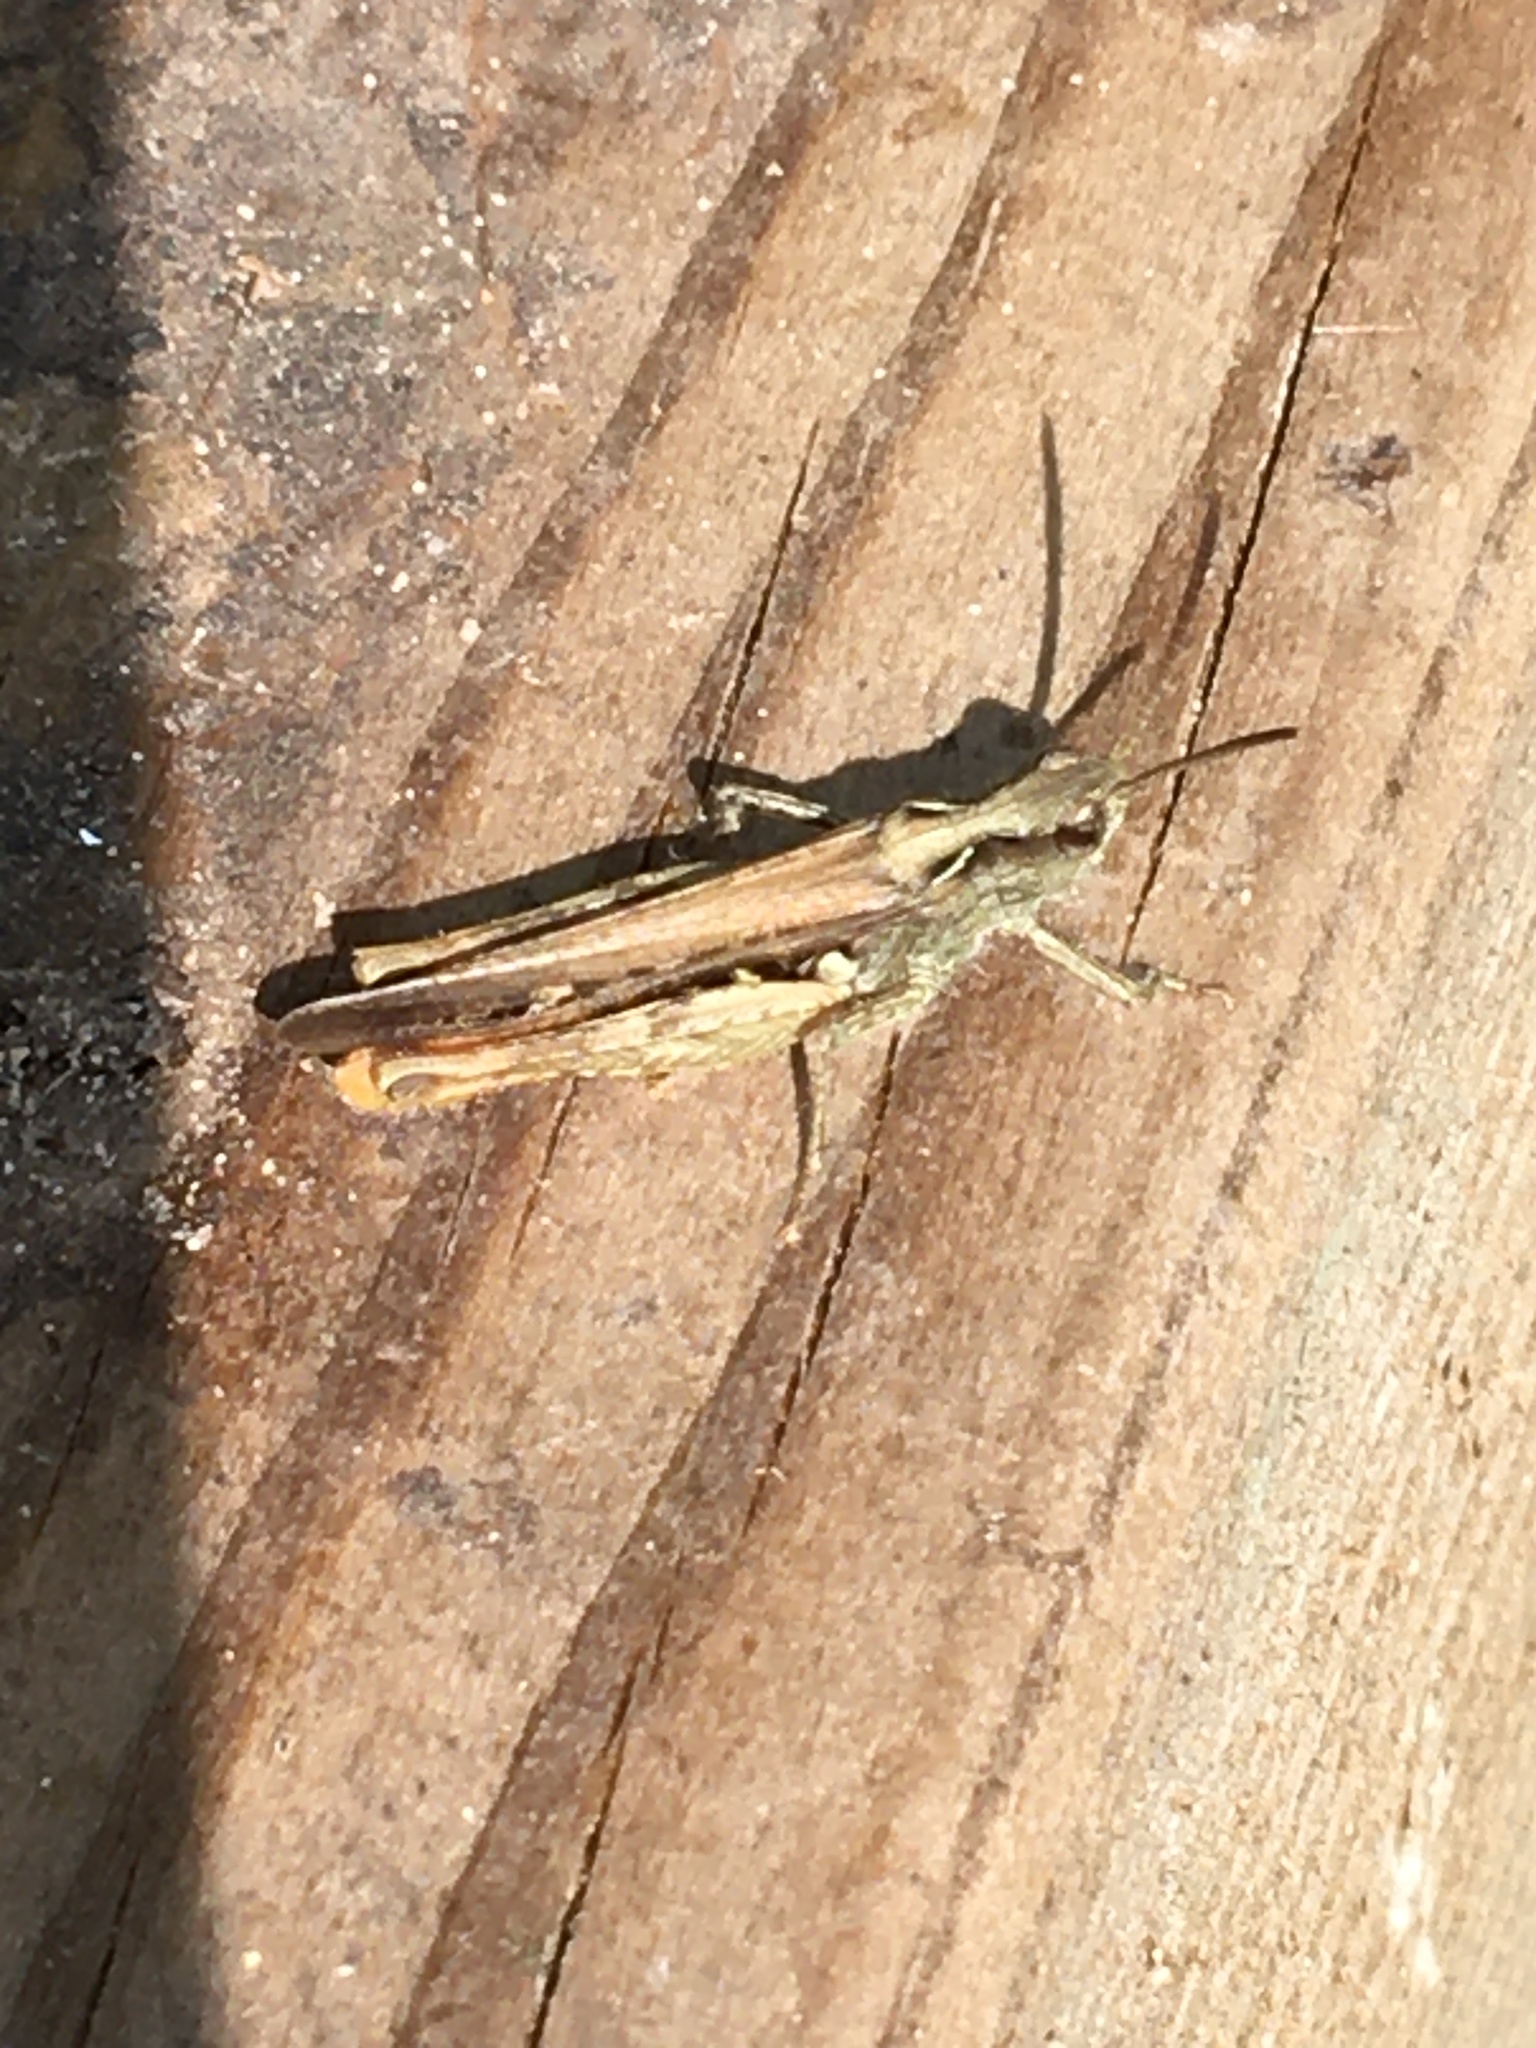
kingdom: Animalia
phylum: Arthropoda
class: Insecta
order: Orthoptera
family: Acrididae
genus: Chorthippus
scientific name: Chorthippus brunneus
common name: Field grasshopper
